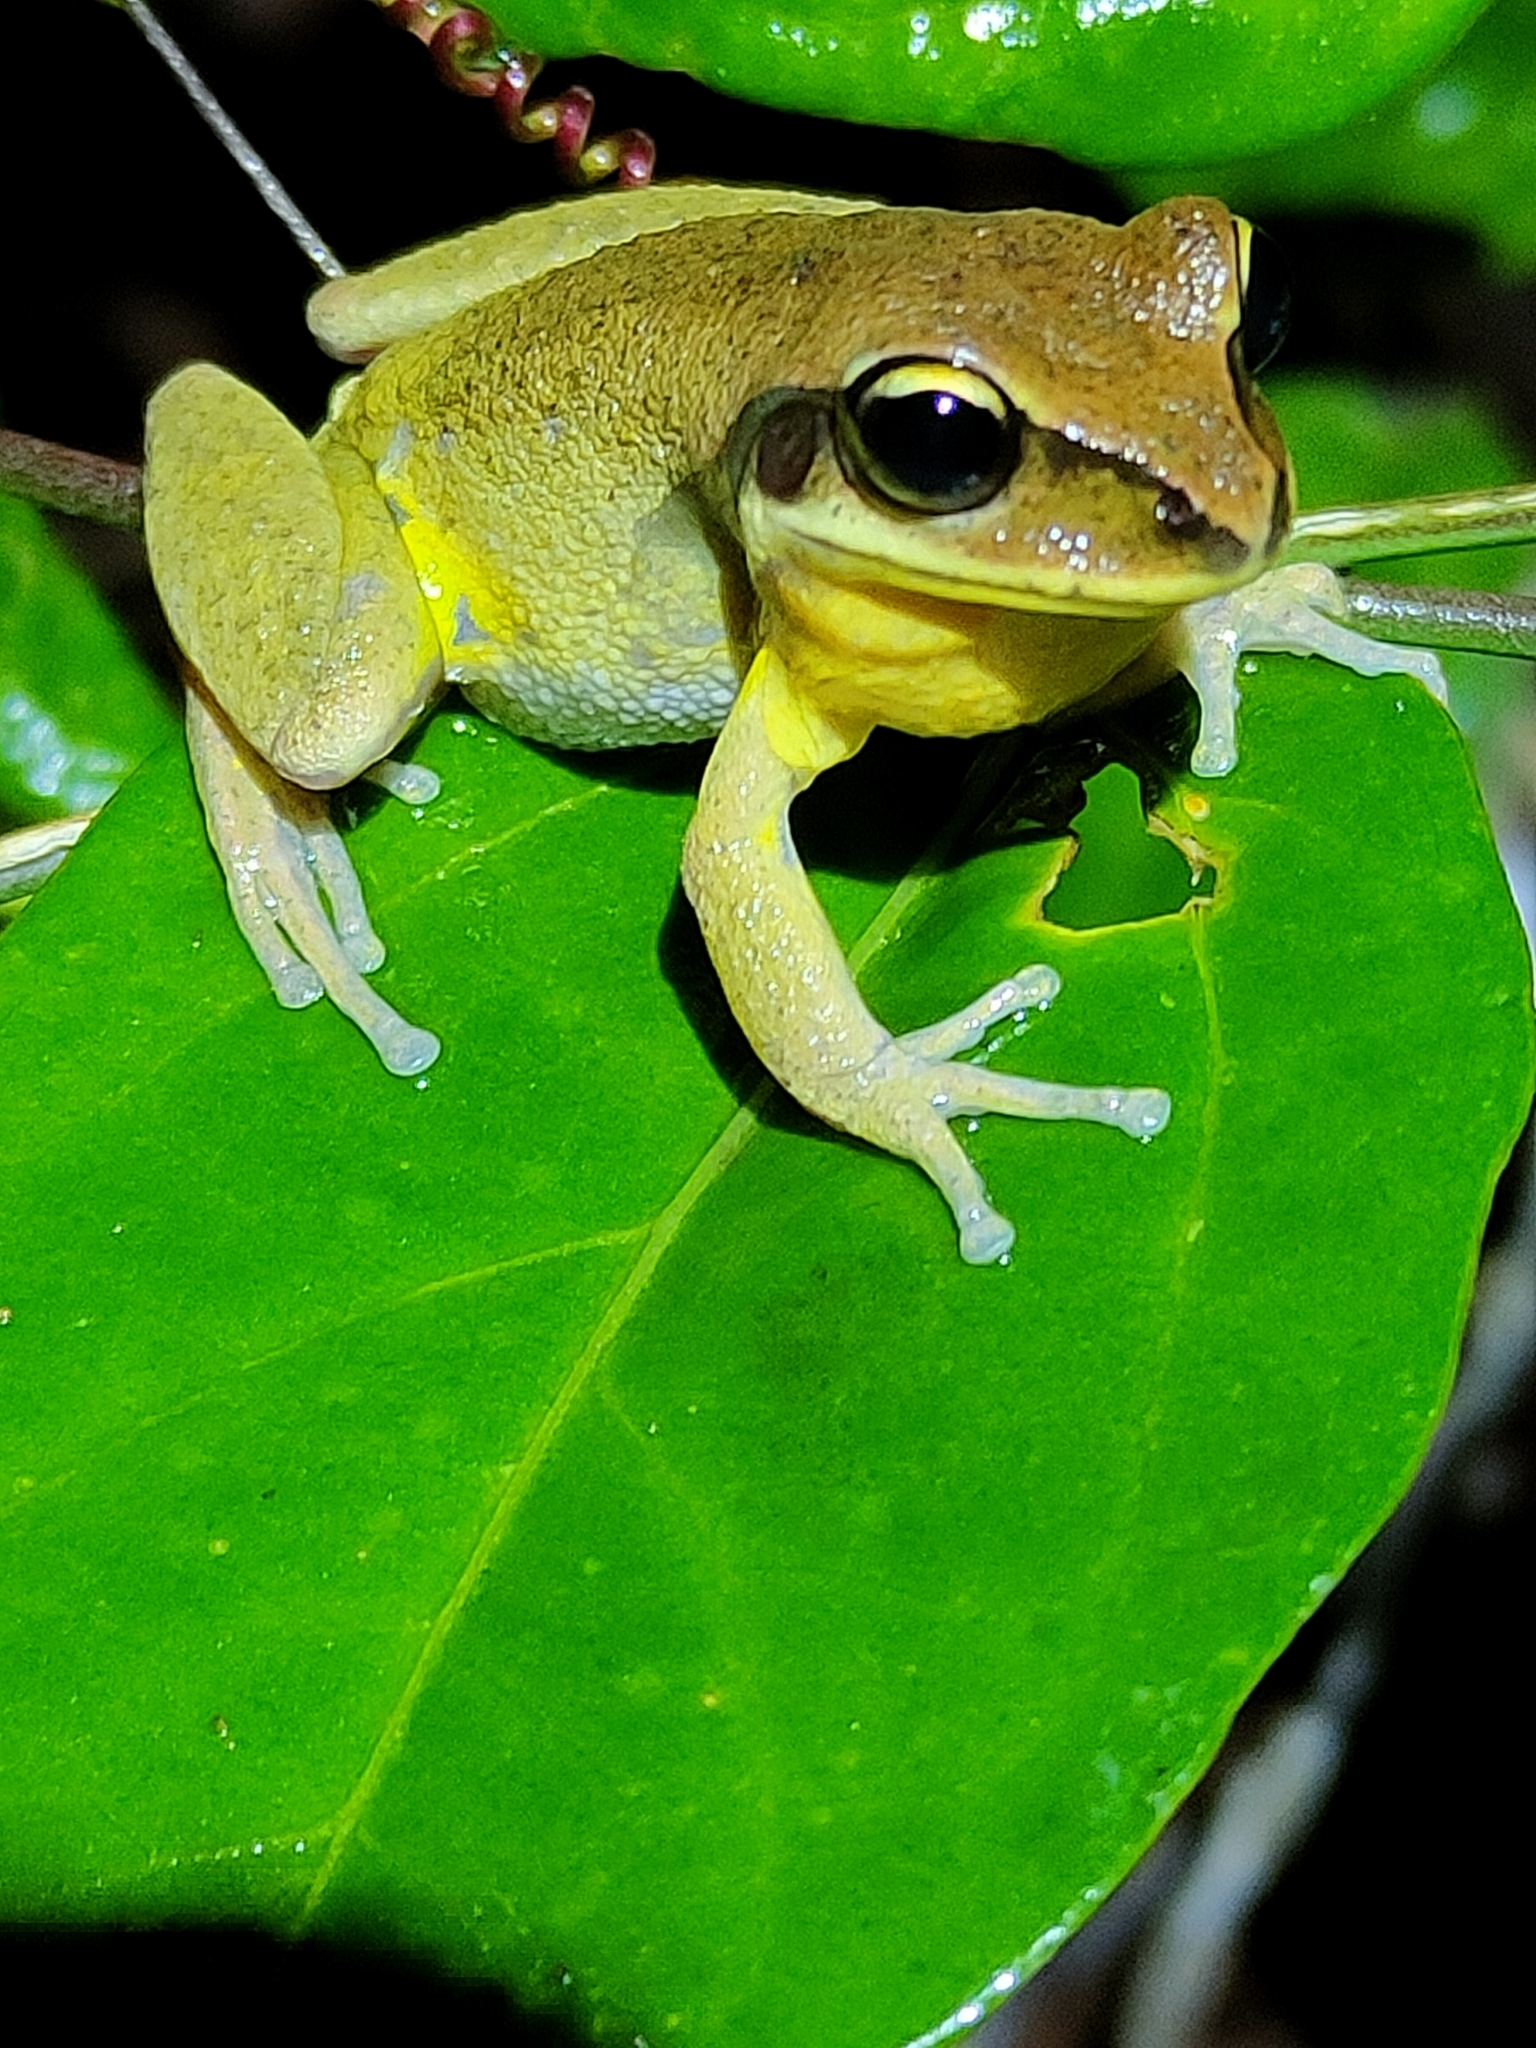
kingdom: Animalia
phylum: Chordata
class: Amphibia
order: Anura
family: Pelodryadidae
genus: Nyctimystes
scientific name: Nyctimystes brevipalmatus
